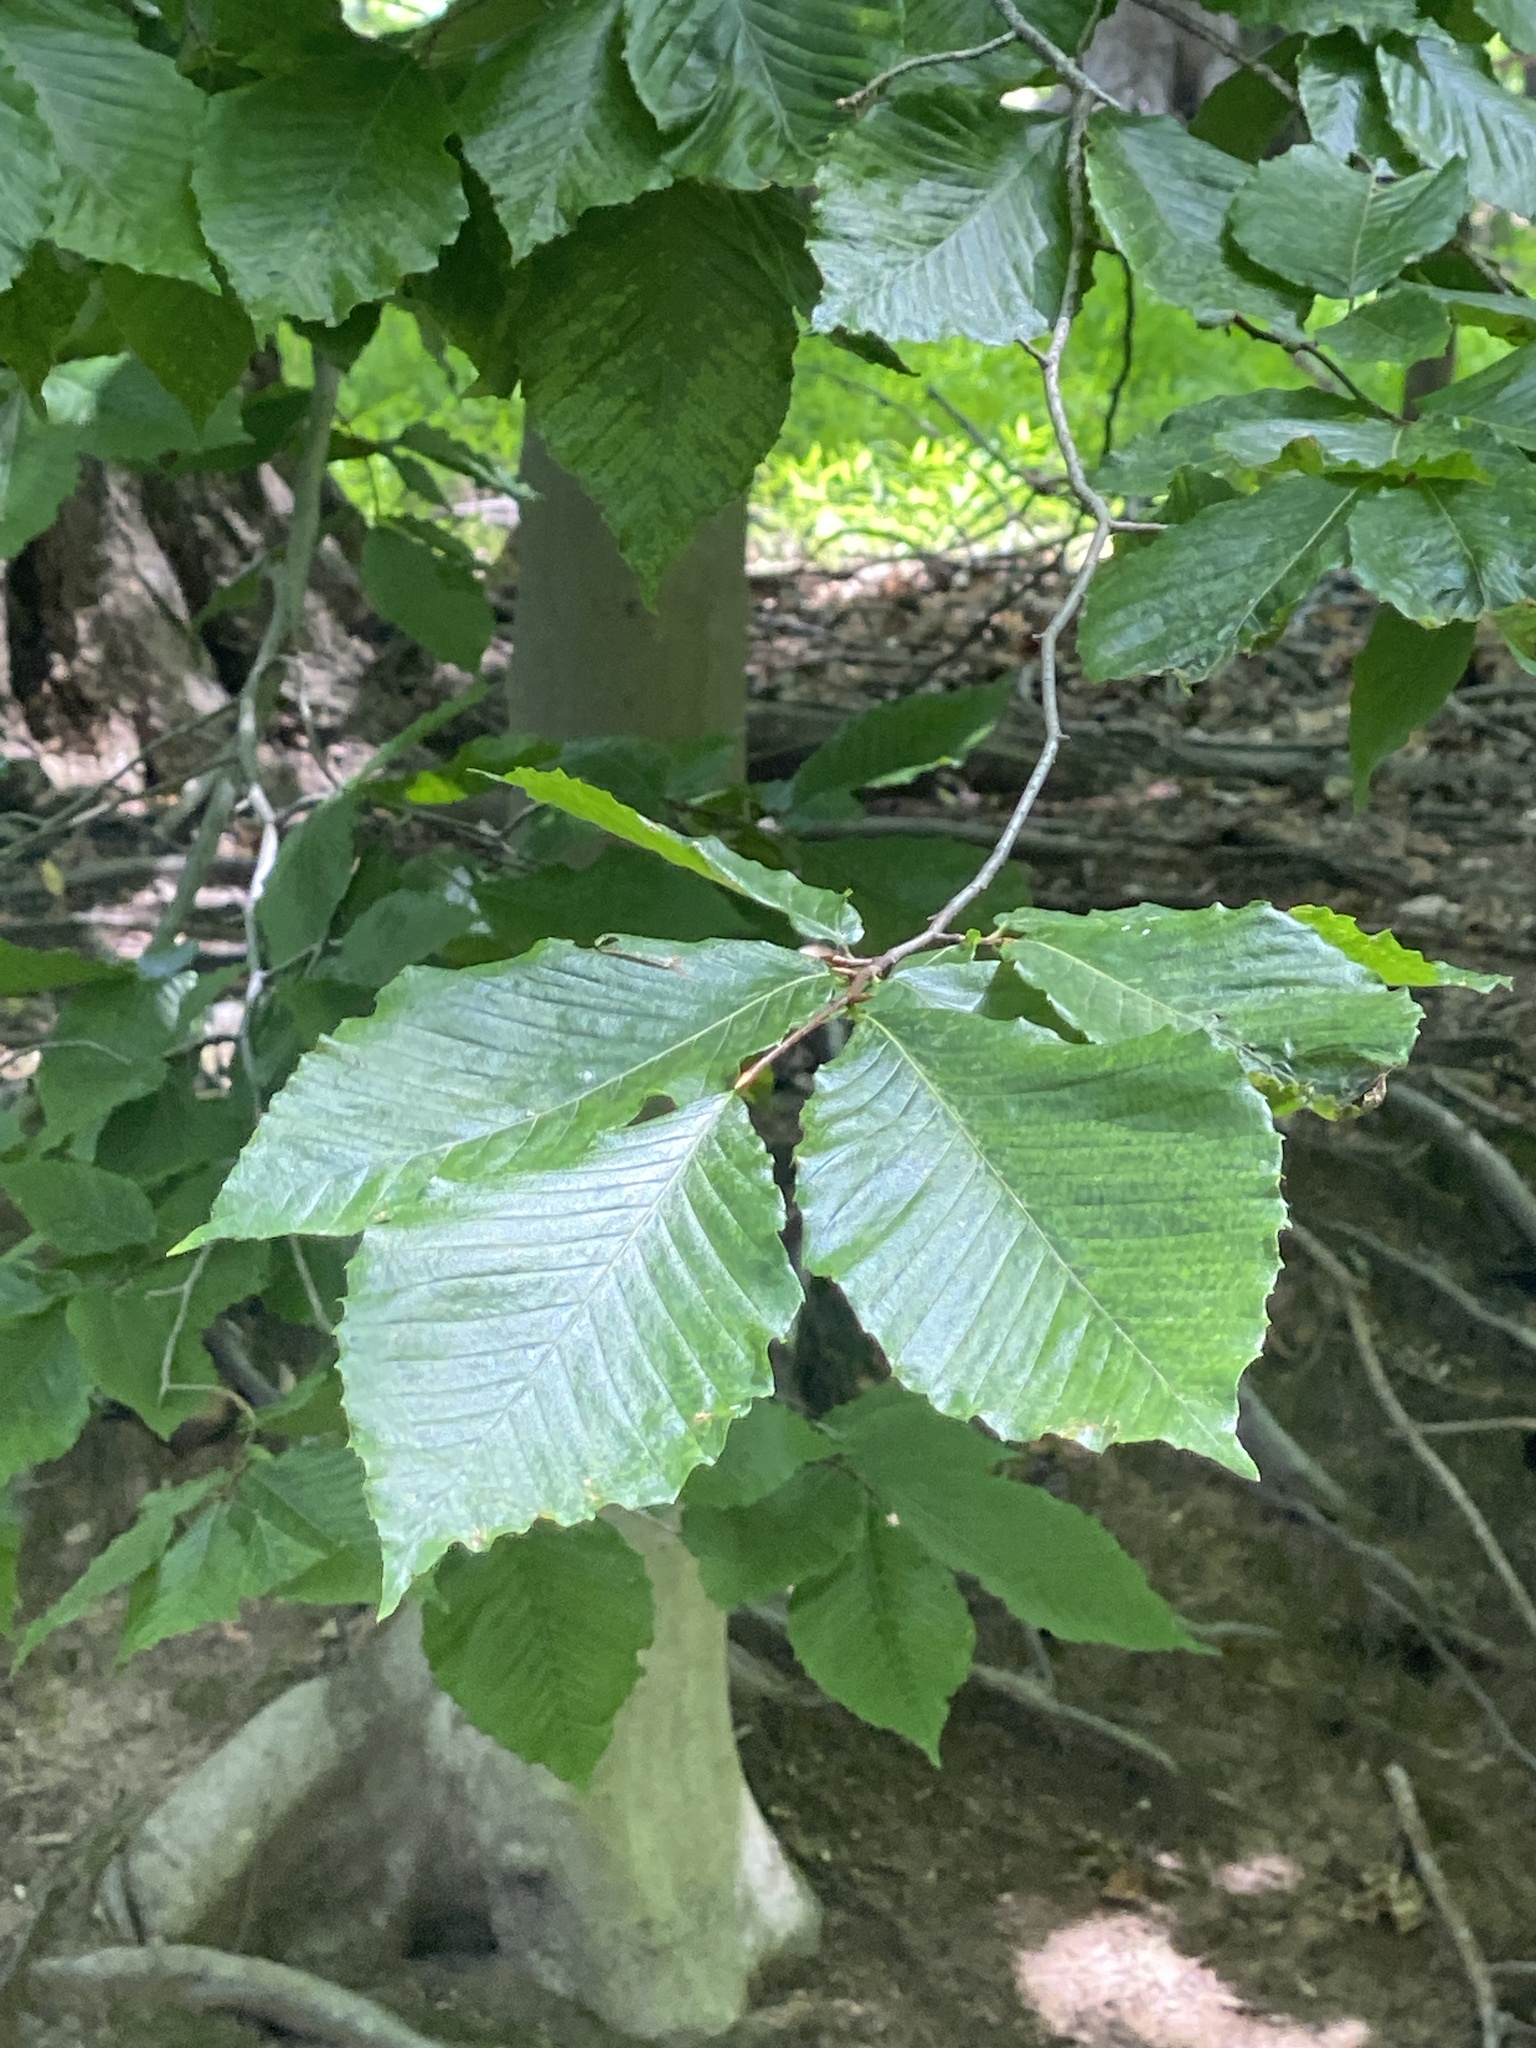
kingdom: Plantae
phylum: Tracheophyta
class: Magnoliopsida
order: Fagales
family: Fagaceae
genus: Fagus
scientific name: Fagus grandifolia
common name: American beech
